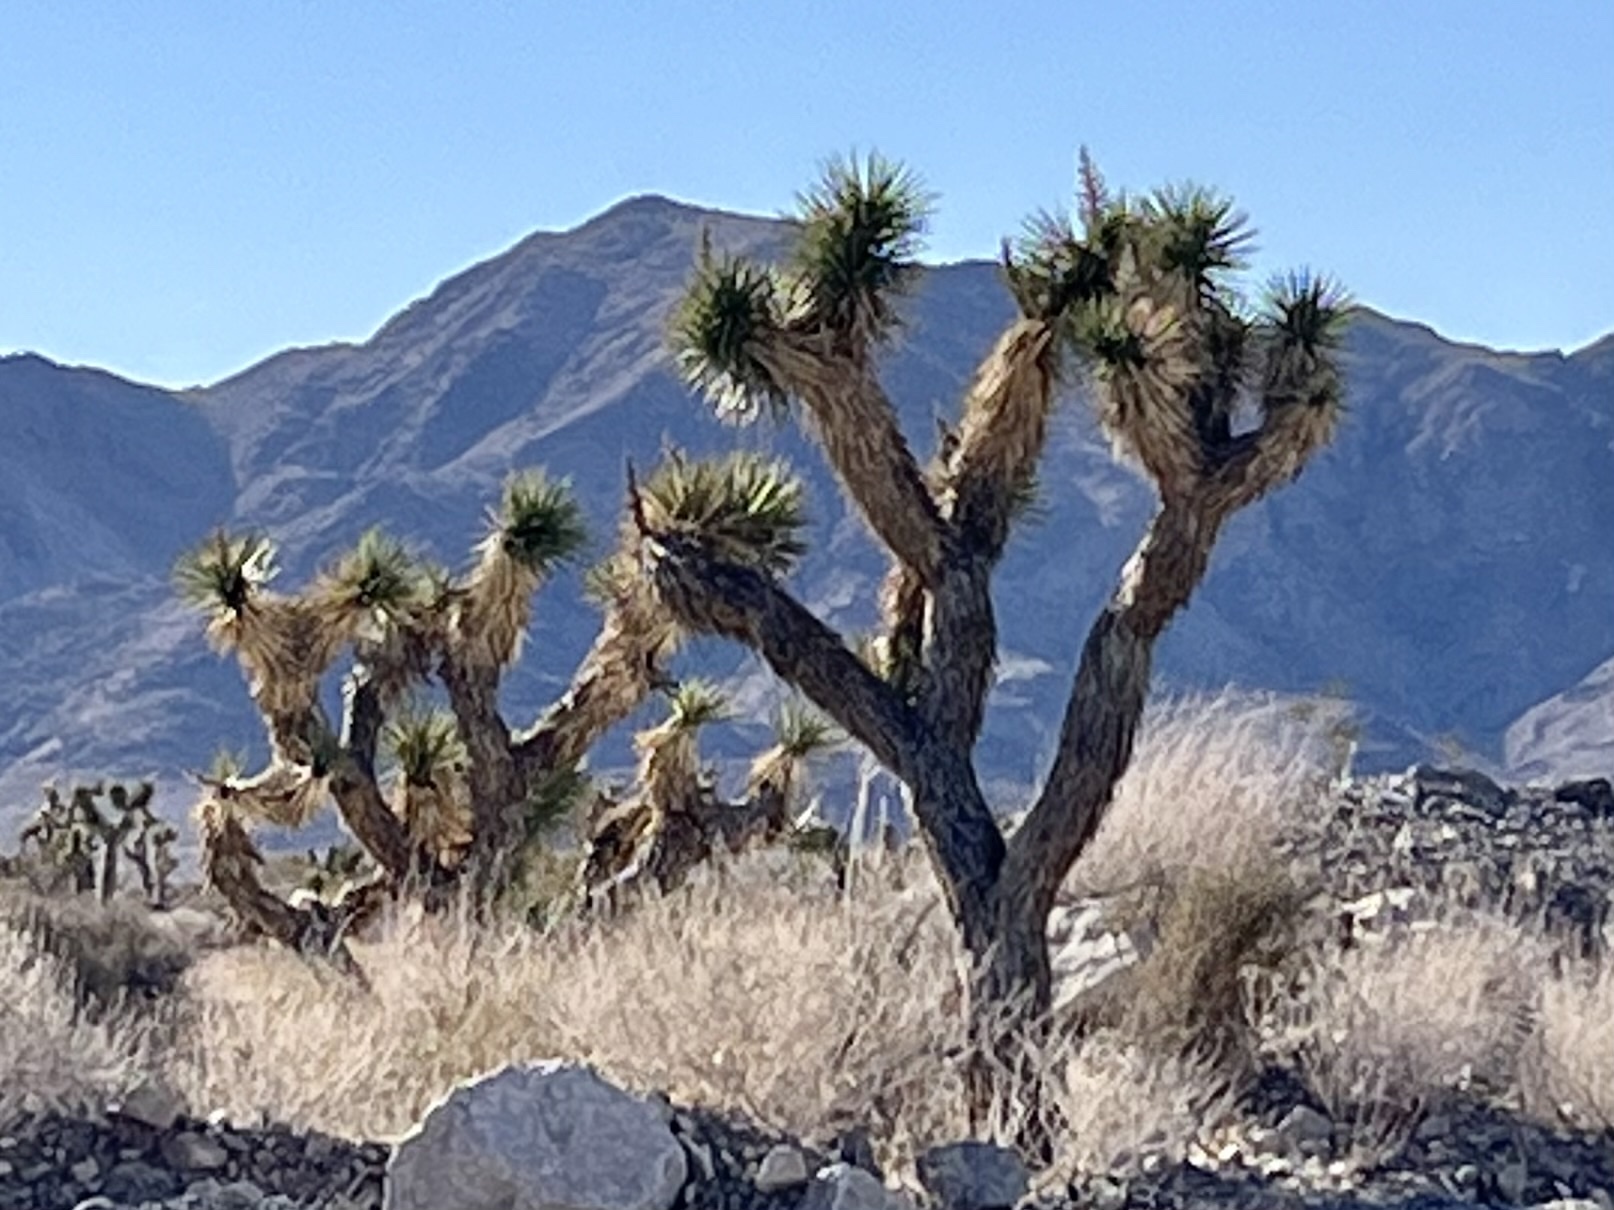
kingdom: Plantae
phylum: Tracheophyta
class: Liliopsida
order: Asparagales
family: Asparagaceae
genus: Yucca
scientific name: Yucca brevifolia
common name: Joshua tree
